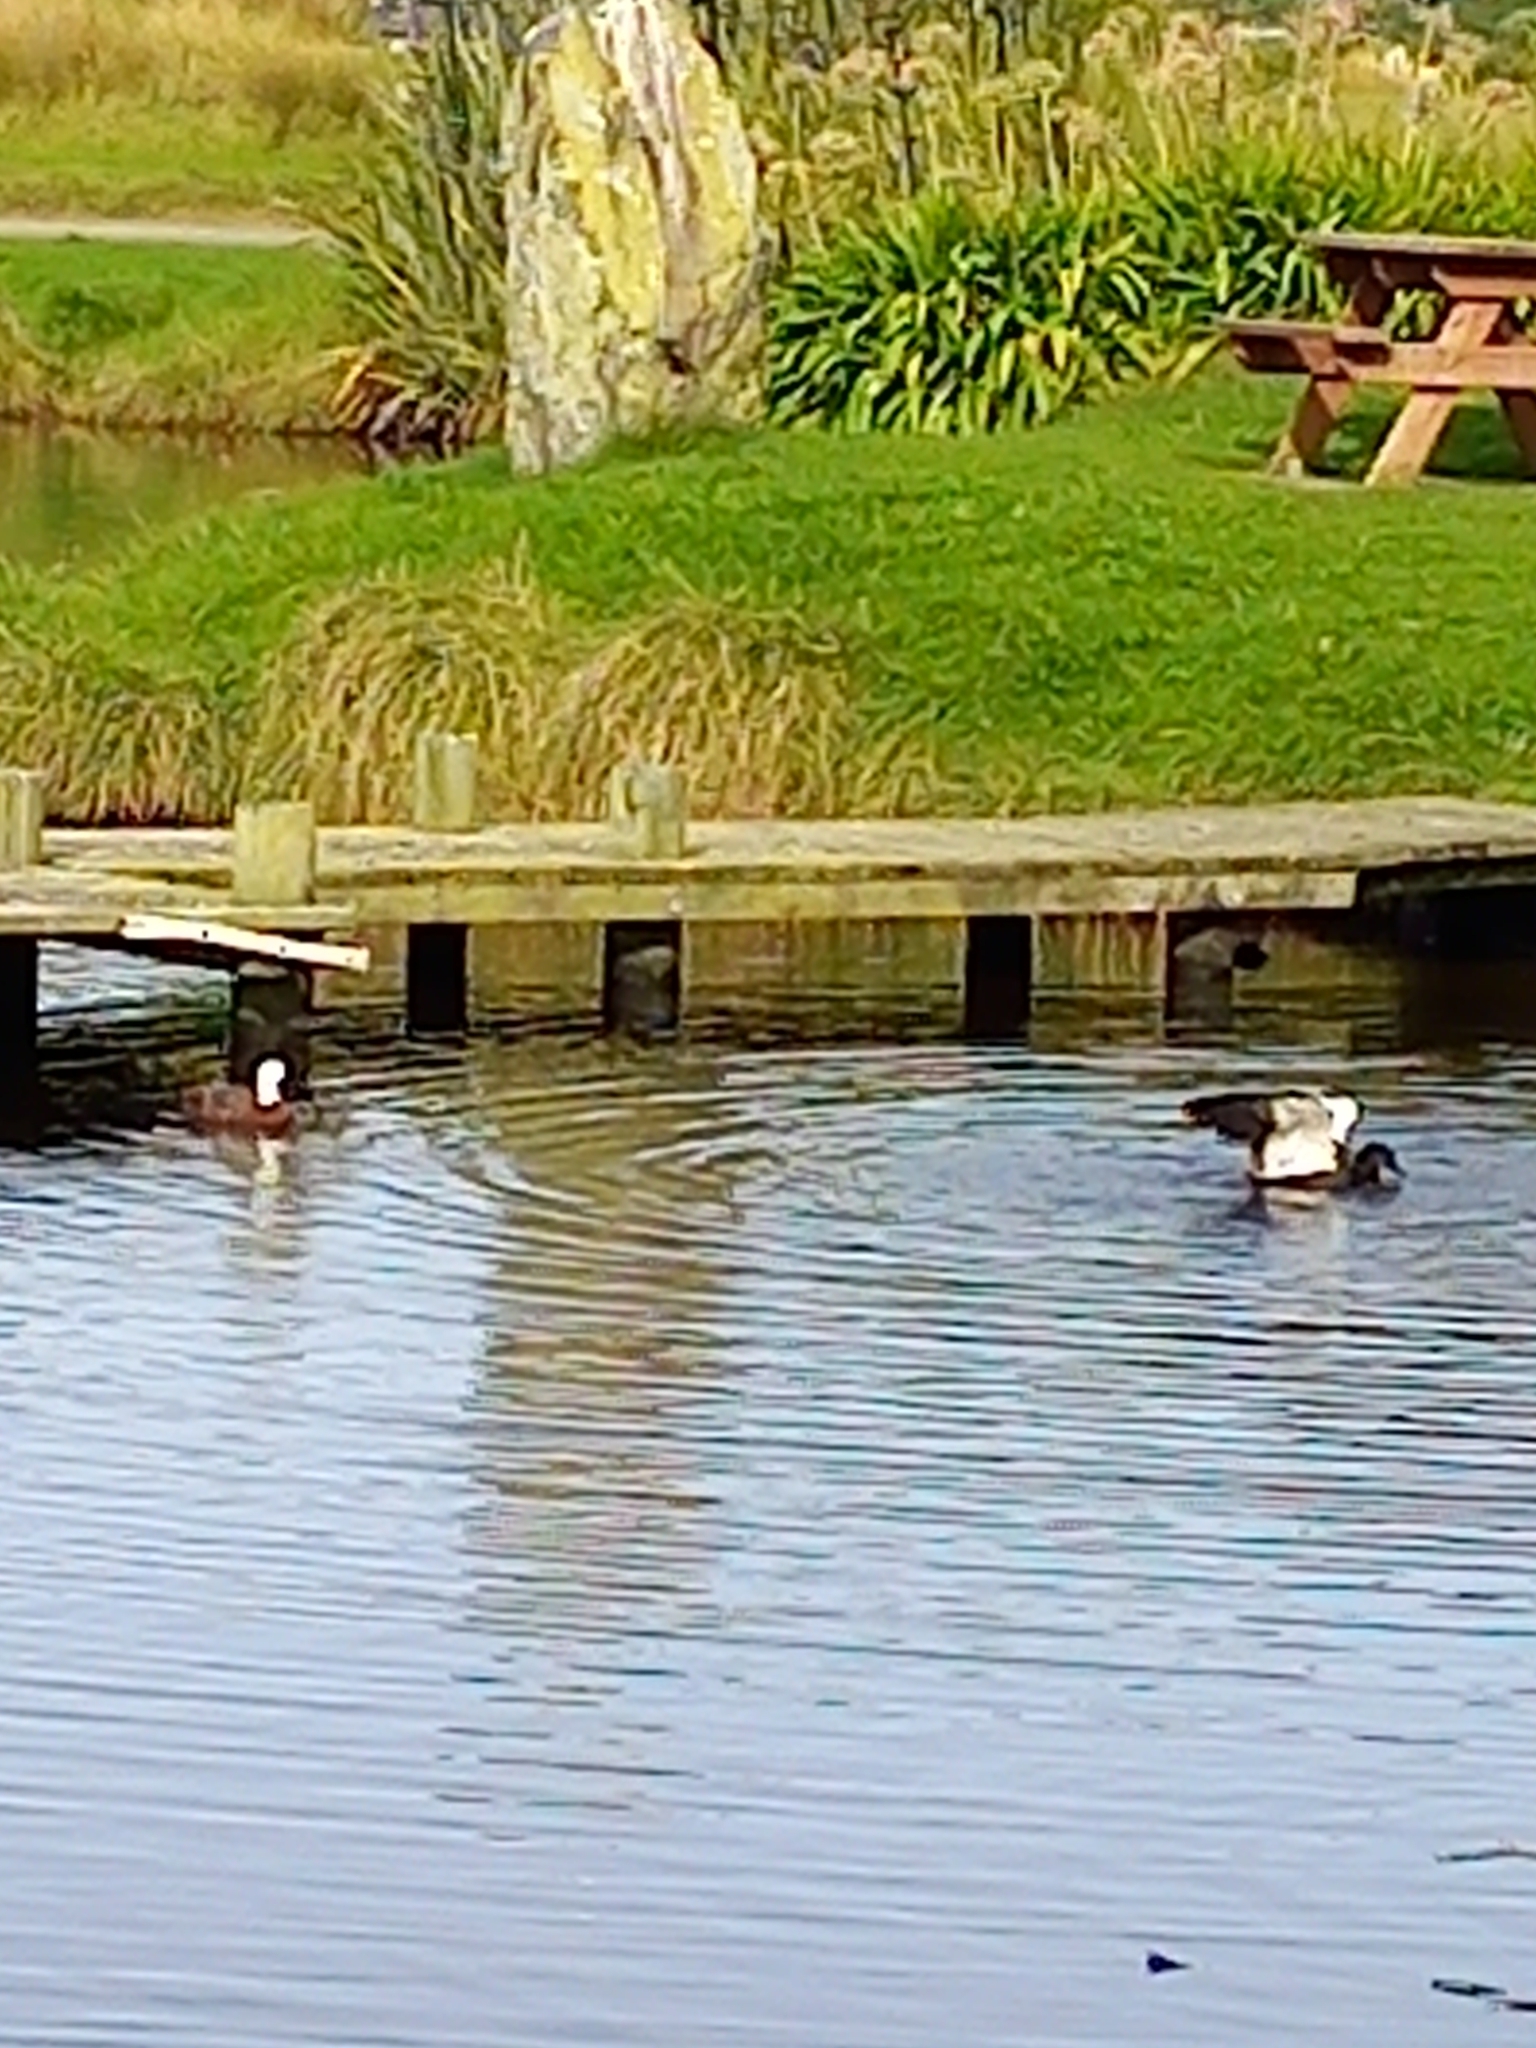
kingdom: Animalia
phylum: Chordata
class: Aves
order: Anseriformes
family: Anatidae
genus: Tadorna
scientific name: Tadorna variegata
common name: Paradise shelduck
